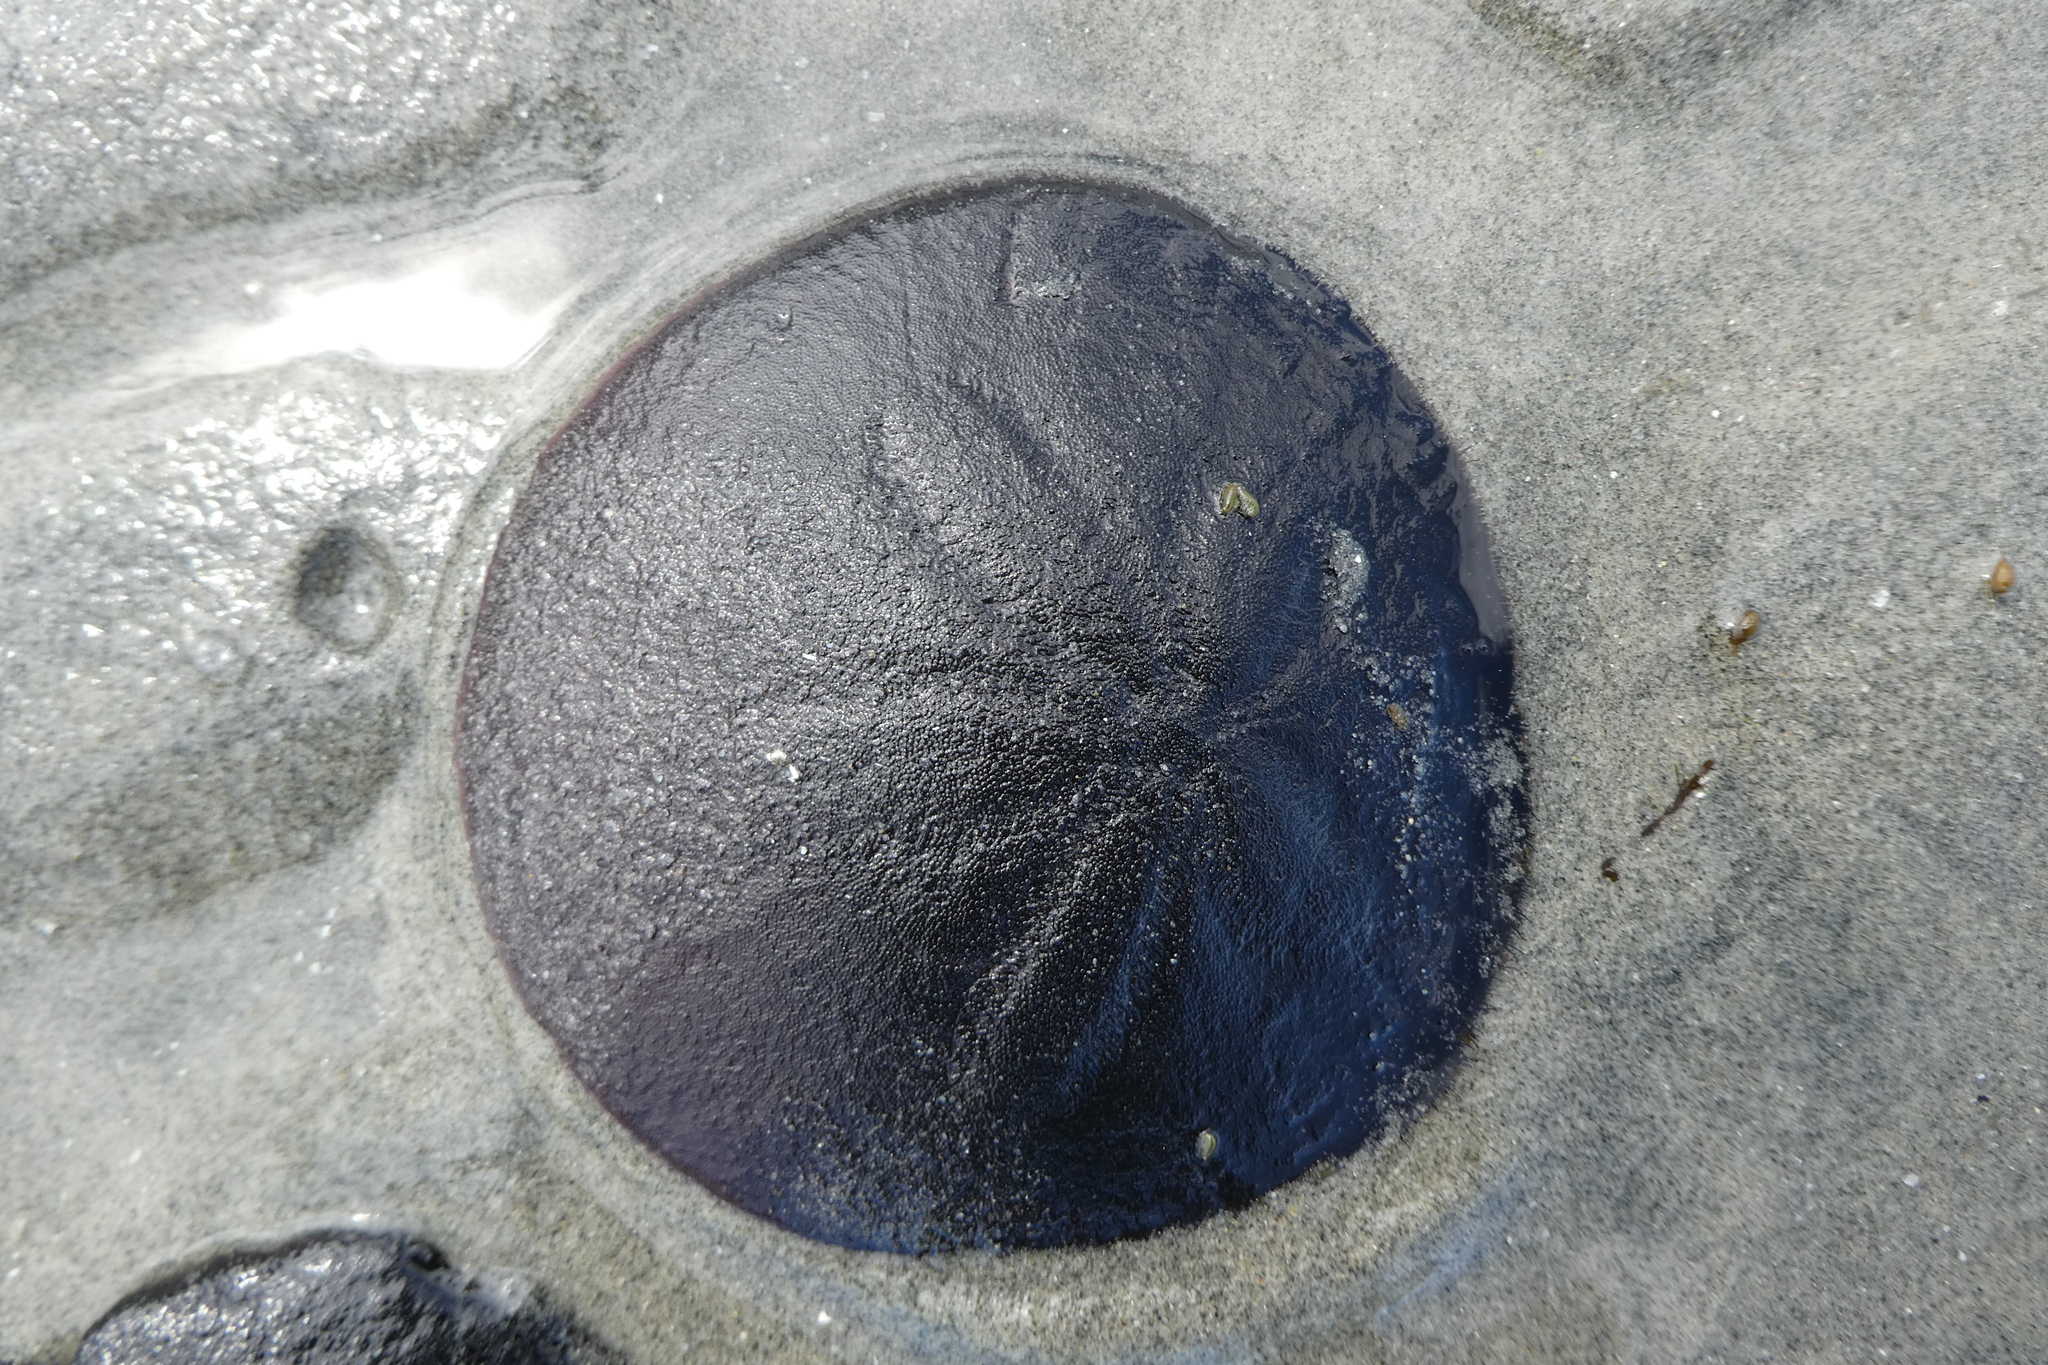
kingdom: Animalia
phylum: Echinodermata
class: Echinoidea
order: Echinolampadacea
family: Dendrasteridae
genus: Dendraster
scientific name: Dendraster excentricus
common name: Eccentric sand dollar sea urchin
